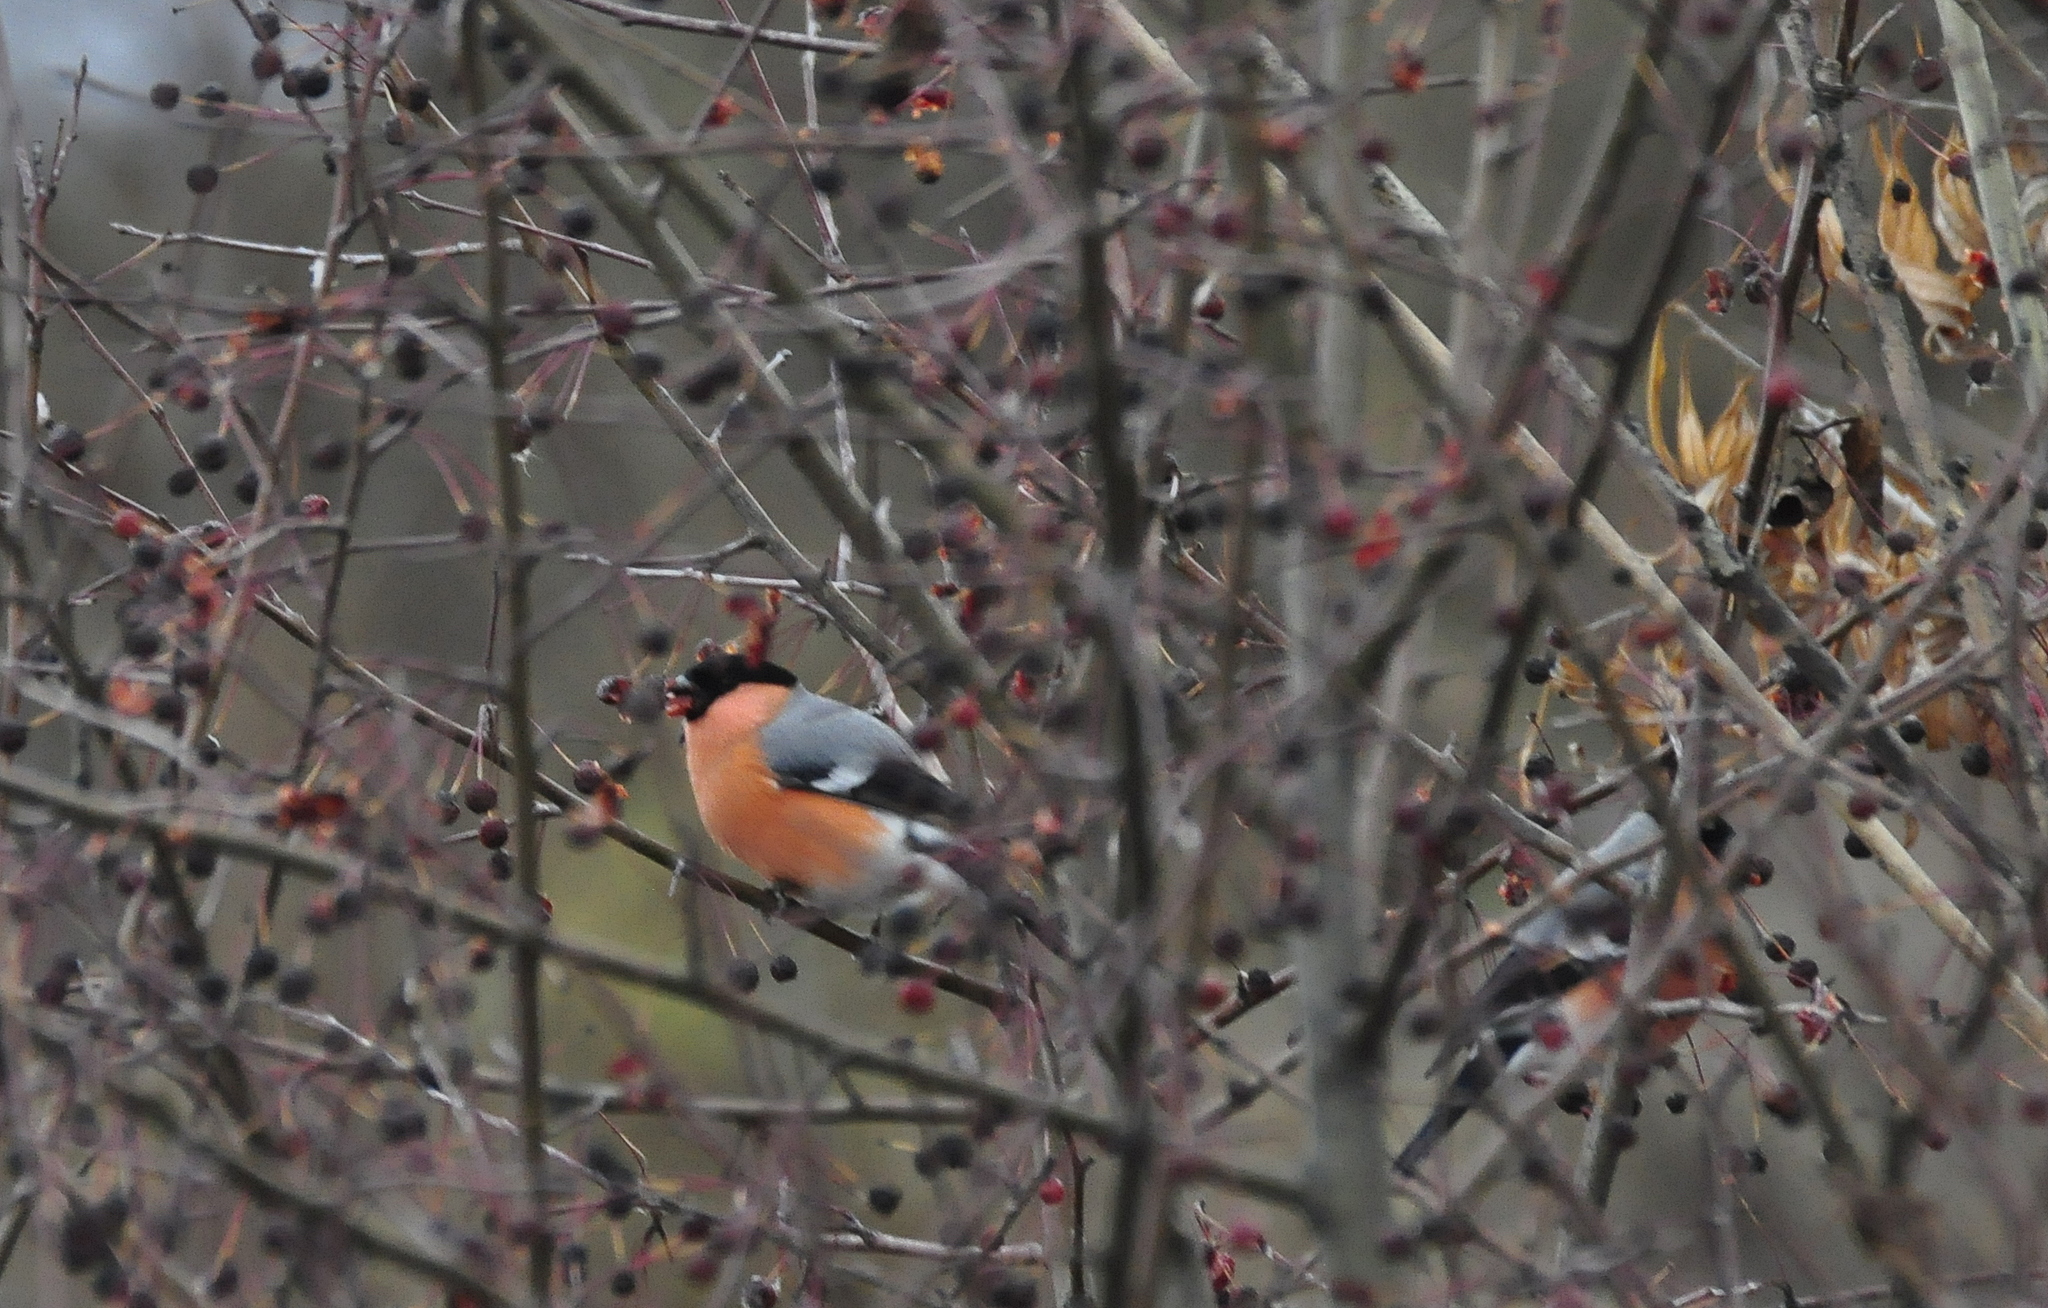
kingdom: Animalia
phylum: Chordata
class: Aves
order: Passeriformes
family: Fringillidae
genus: Pyrrhula
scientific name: Pyrrhula pyrrhula
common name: Eurasian bullfinch
